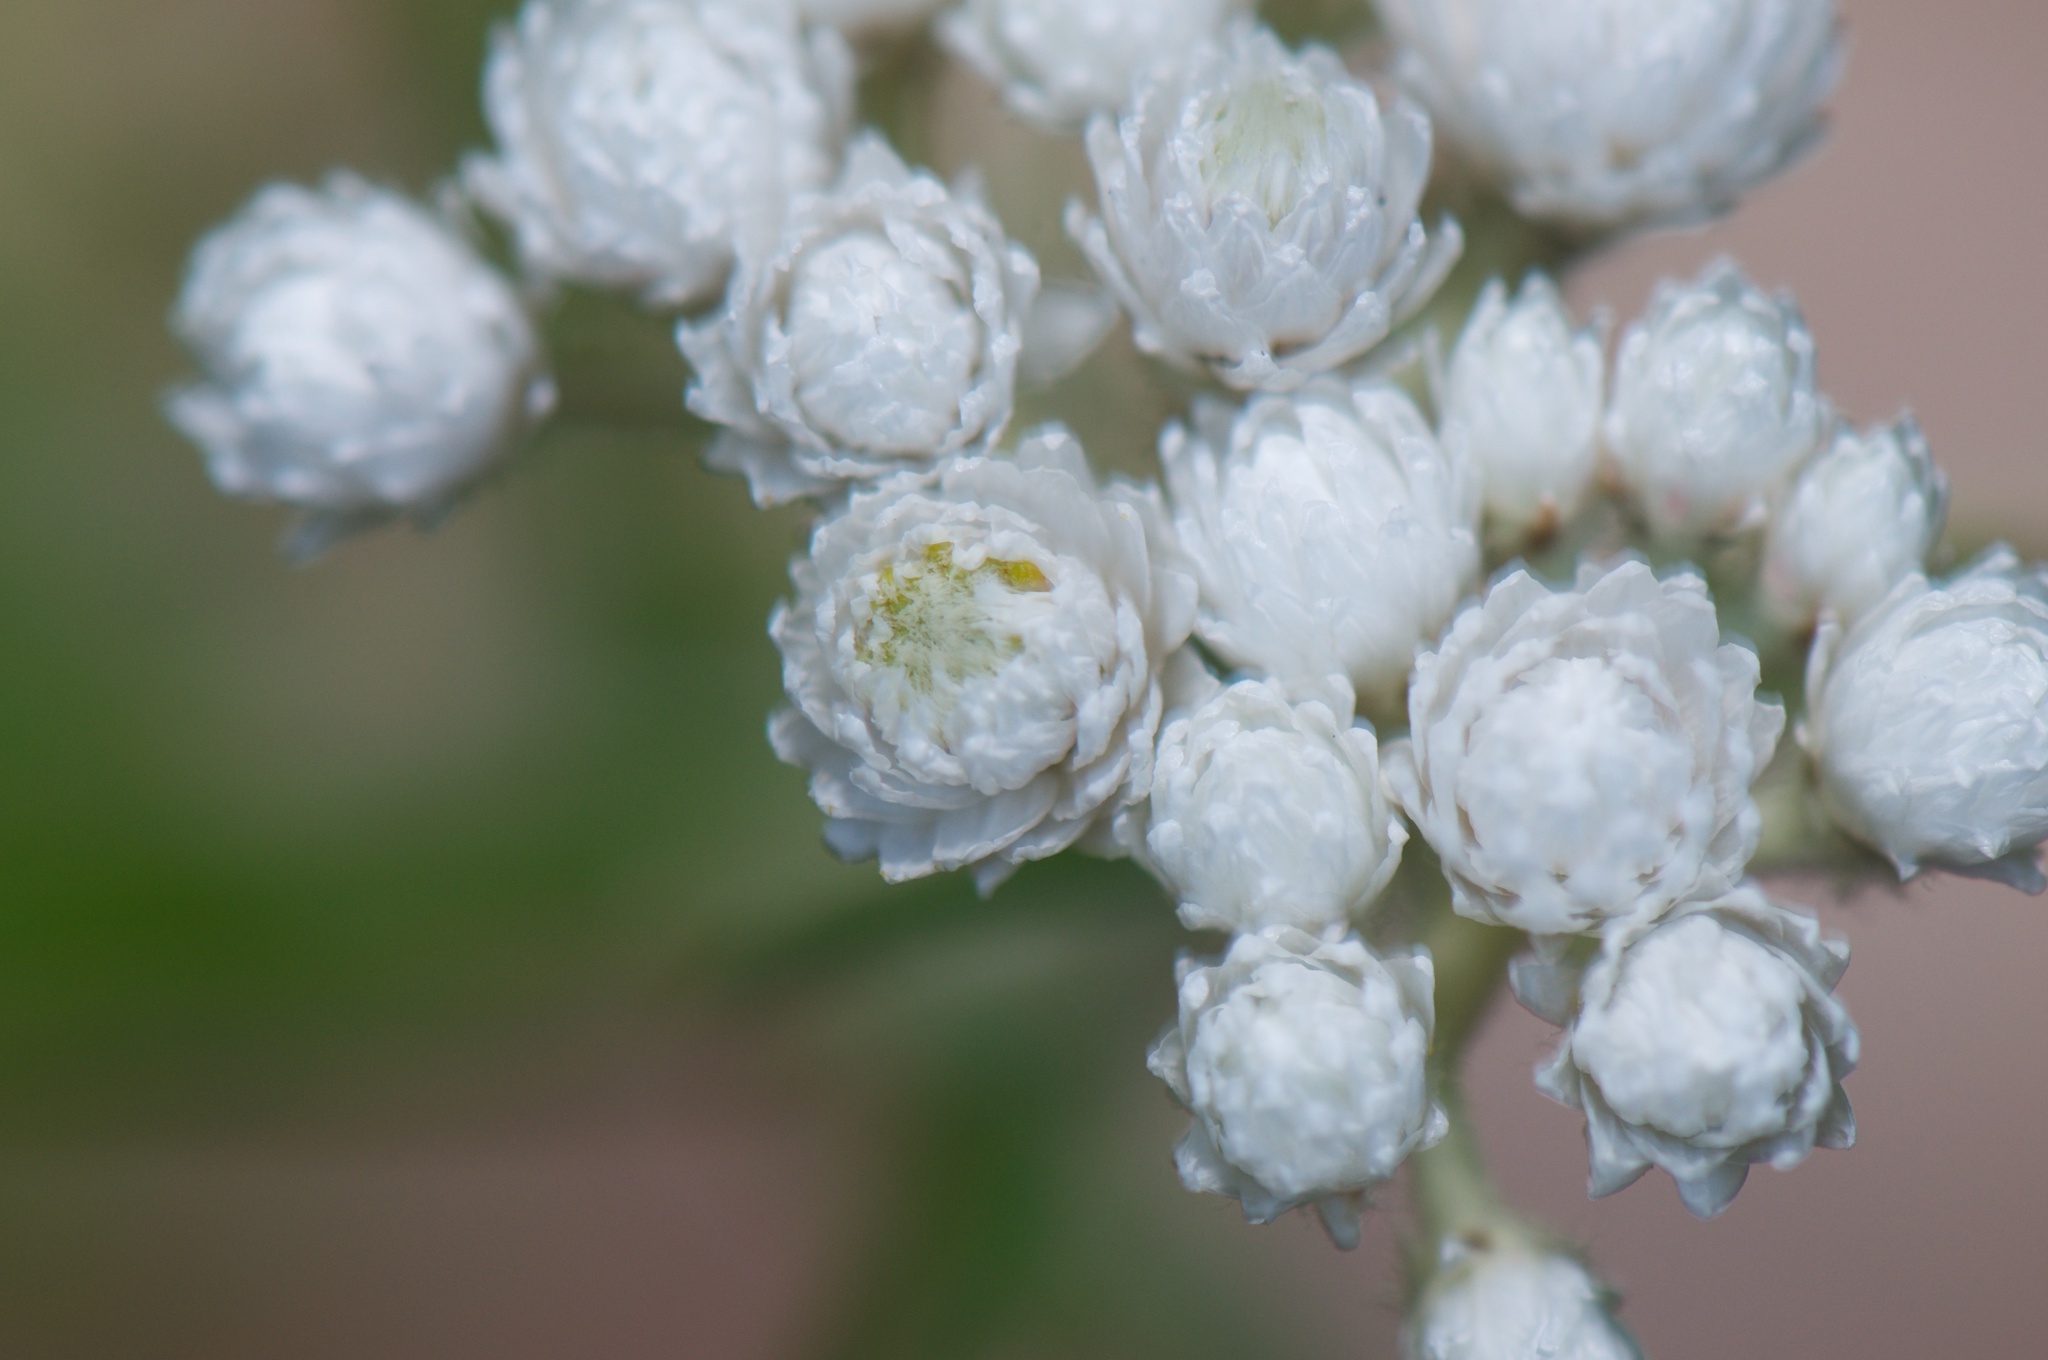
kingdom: Plantae
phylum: Tracheophyta
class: Magnoliopsida
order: Asterales
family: Asteraceae
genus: Anaphalis
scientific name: Anaphalis margaritacea
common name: Pearly everlasting
